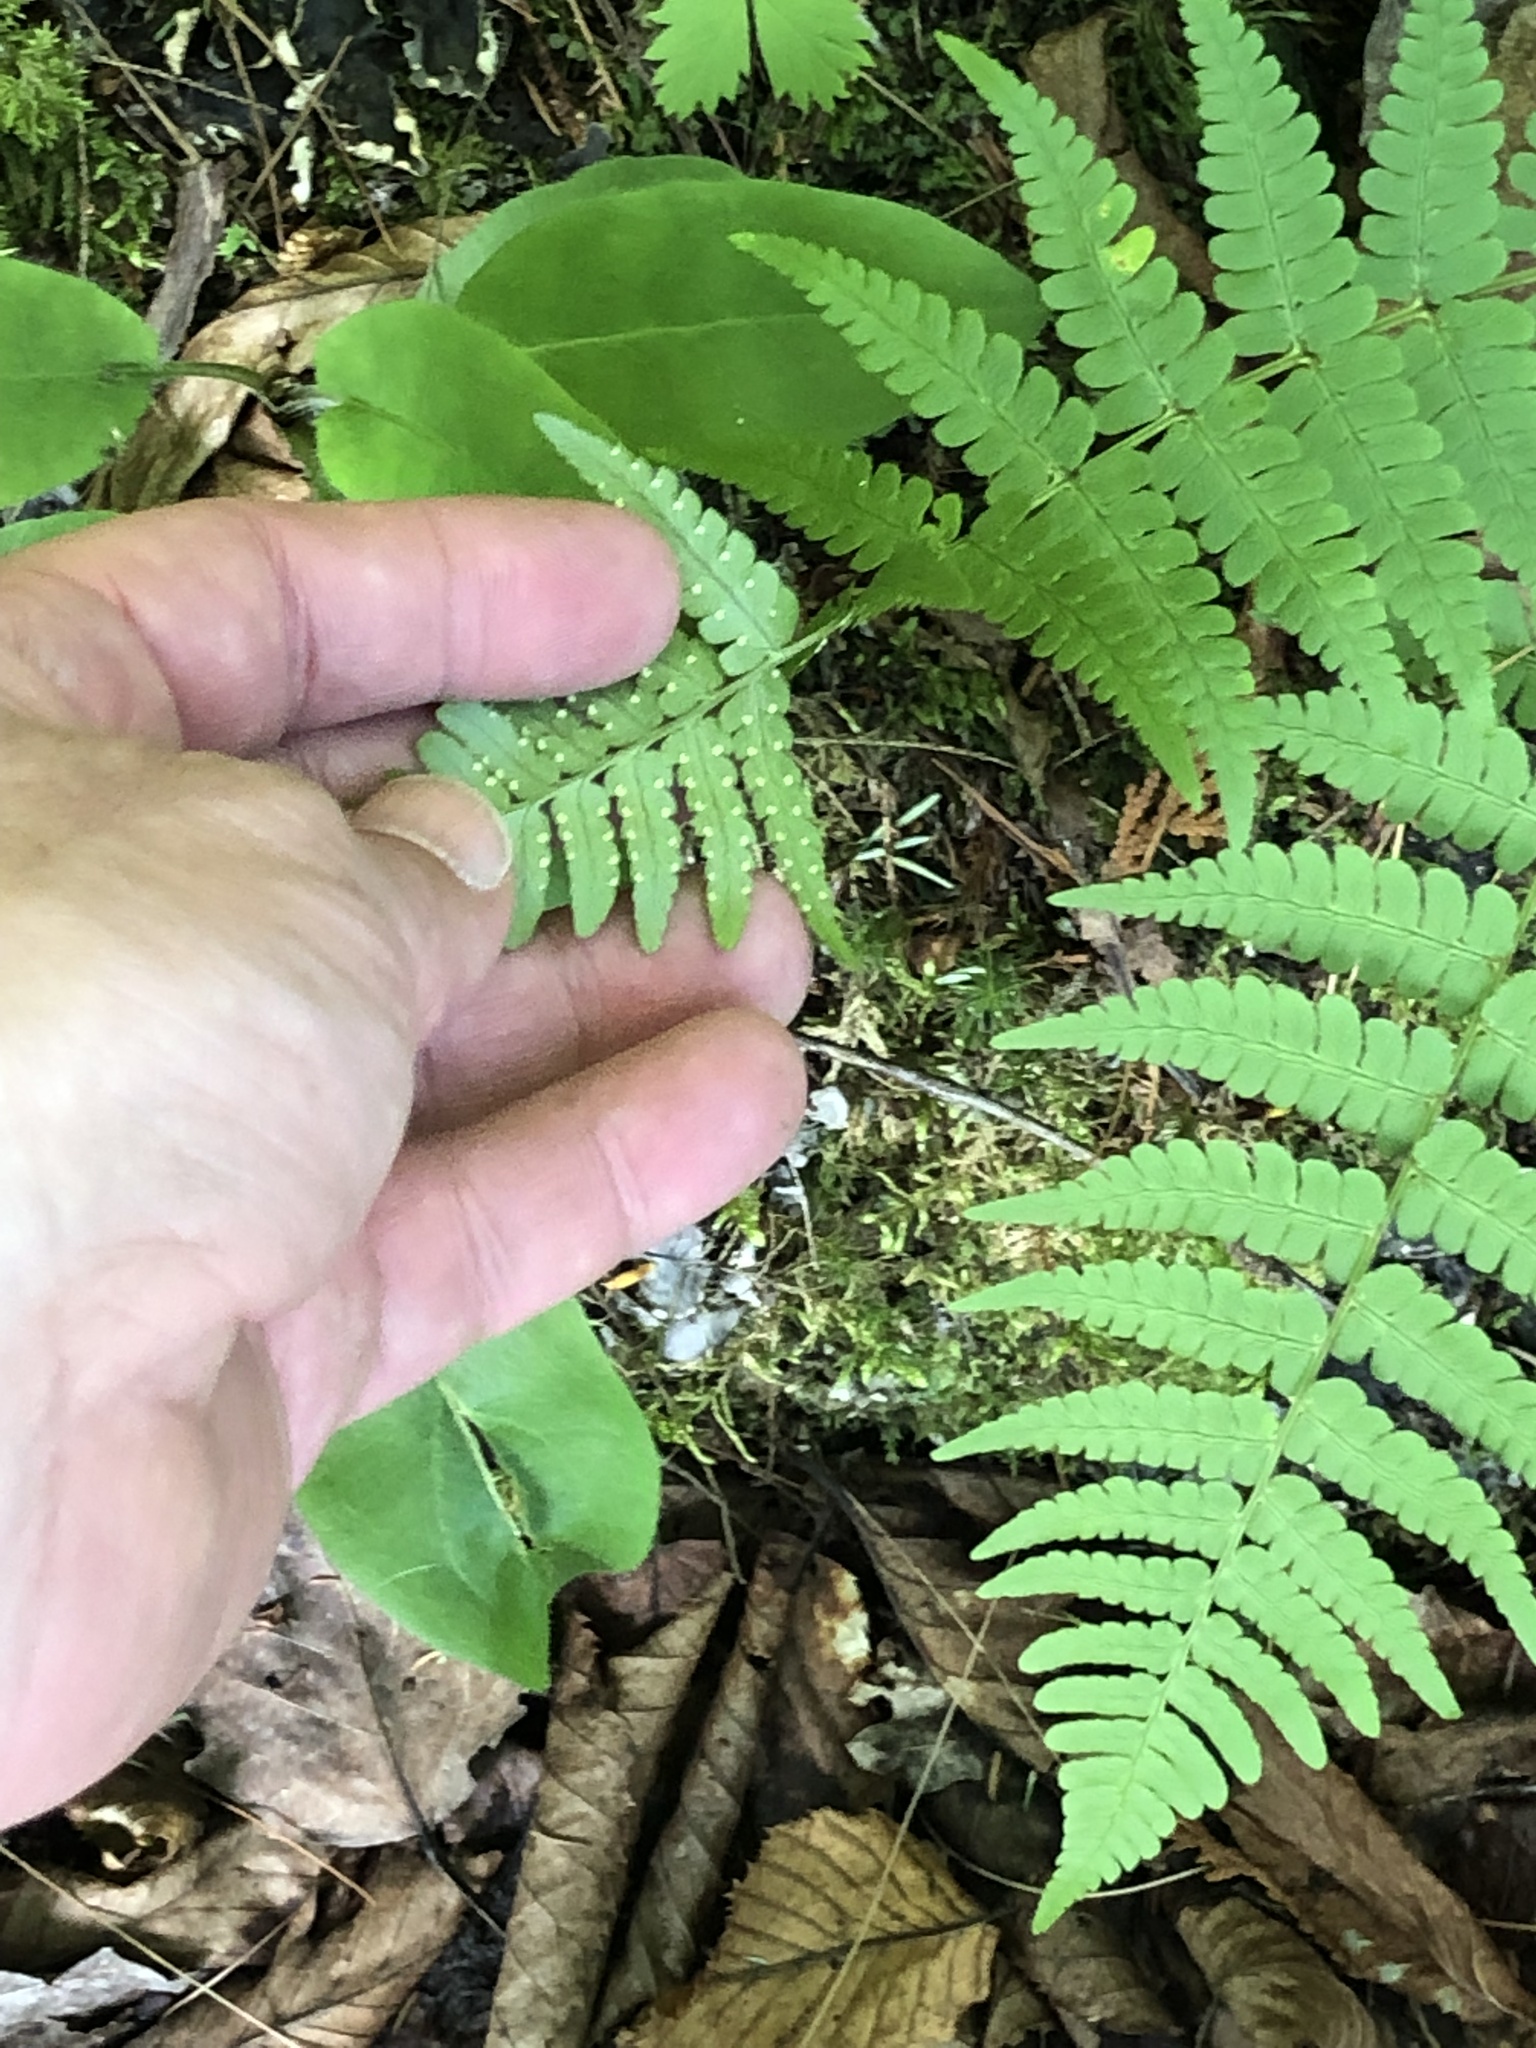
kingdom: Plantae
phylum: Tracheophyta
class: Polypodiopsida
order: Polypodiales
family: Dryopteridaceae
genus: Dryopteris
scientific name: Dryopteris marginalis
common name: Marginal wood fern
